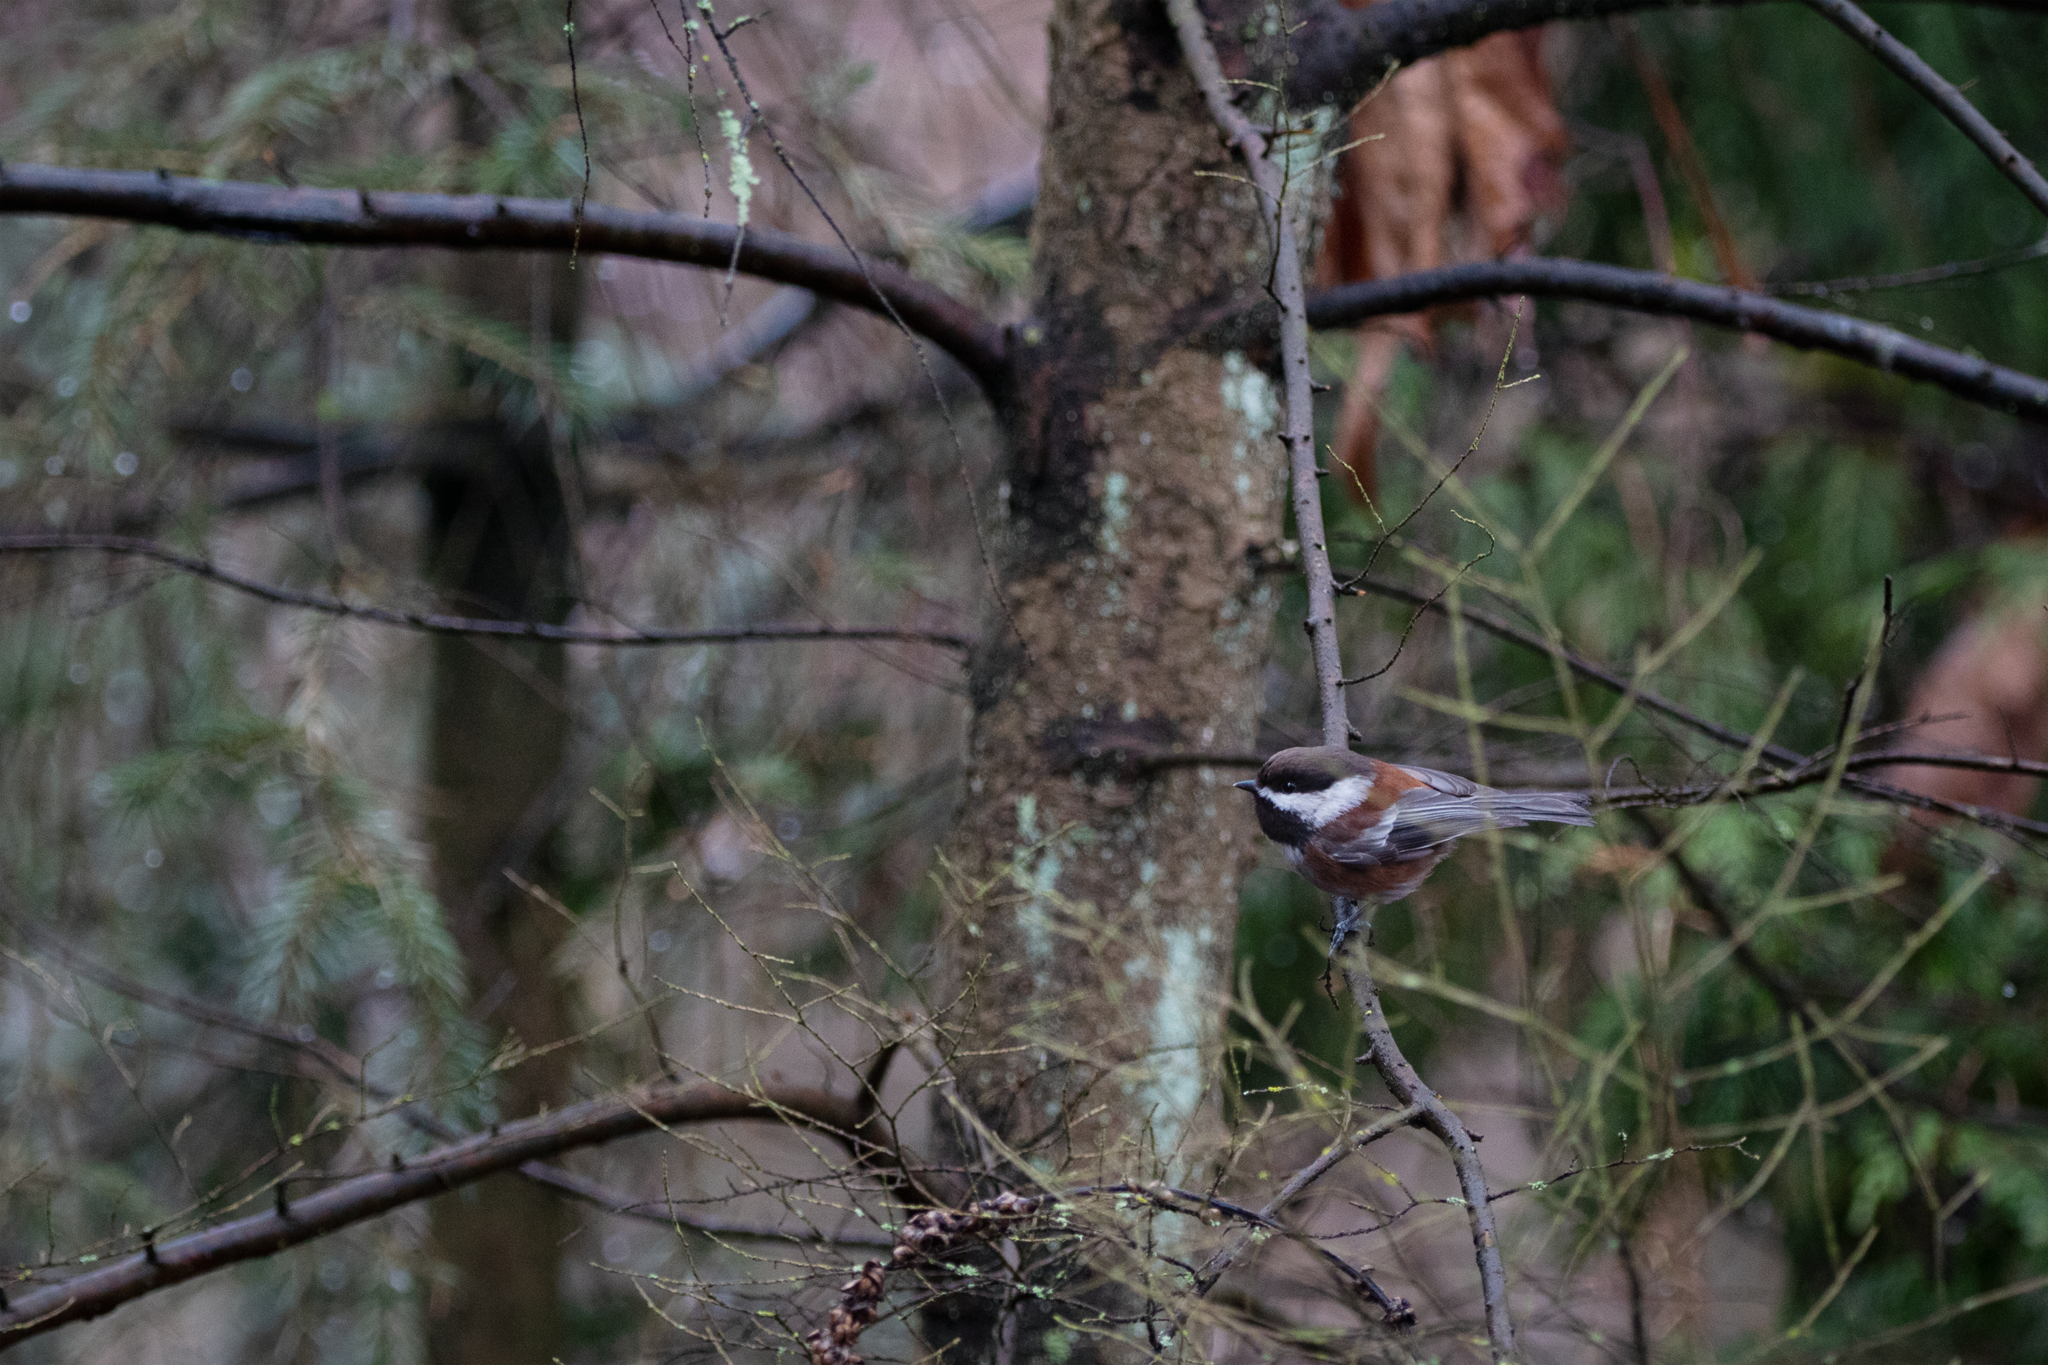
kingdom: Animalia
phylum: Chordata
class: Aves
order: Passeriformes
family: Paridae
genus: Poecile
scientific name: Poecile rufescens
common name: Chestnut-backed chickadee
